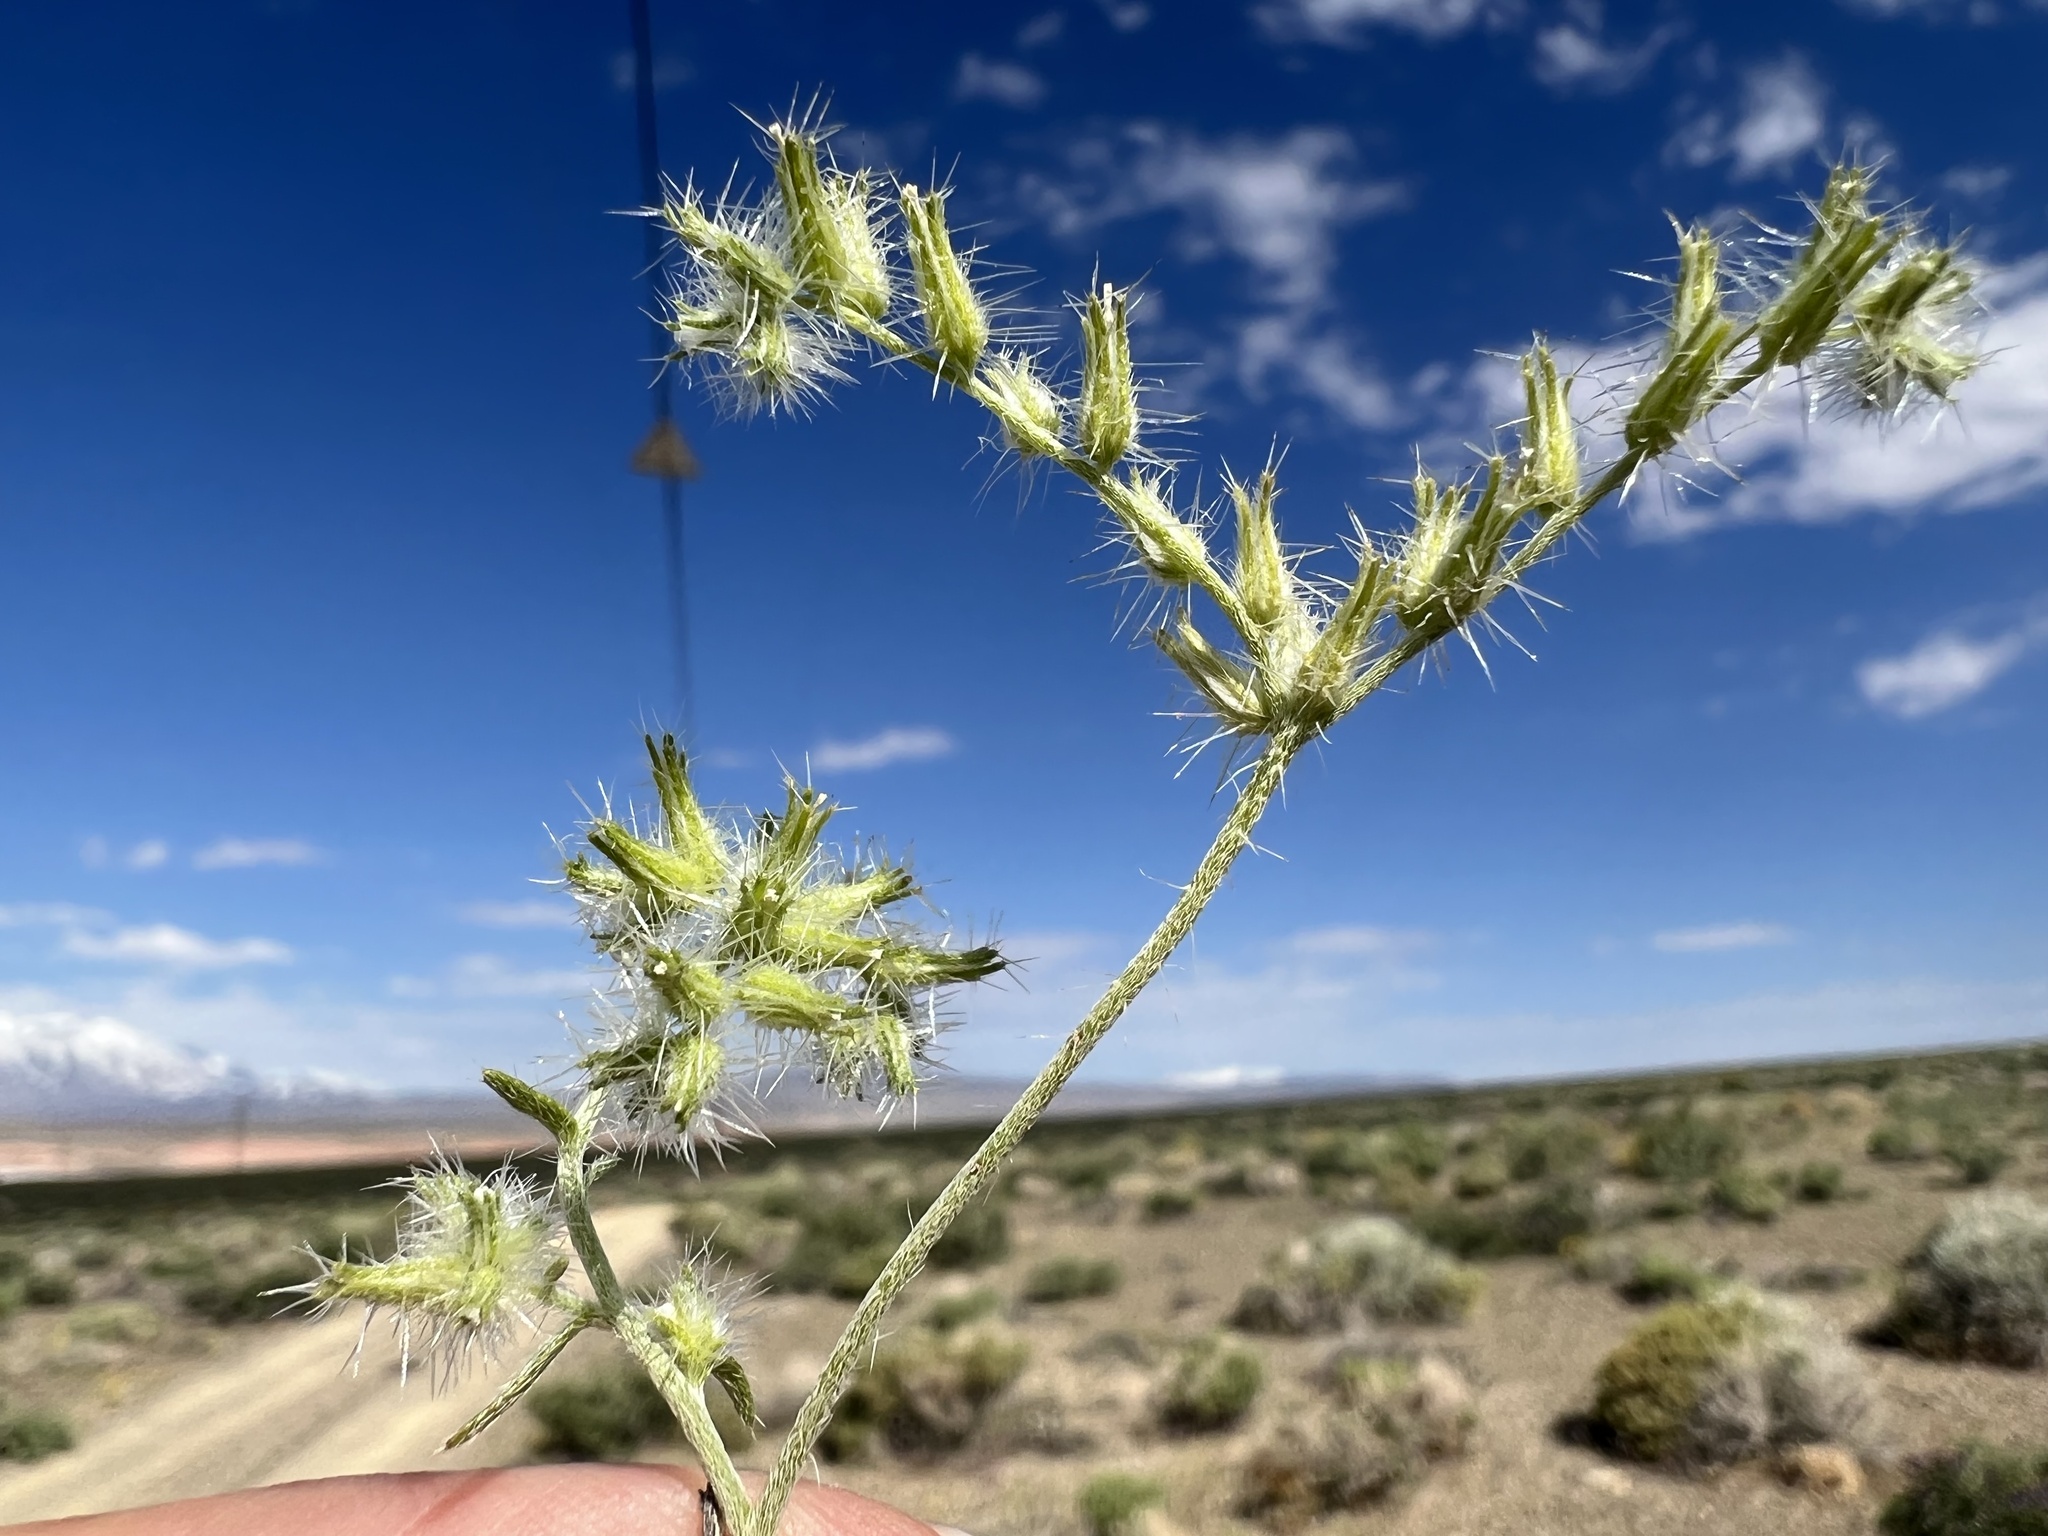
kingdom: Plantae
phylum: Tracheophyta
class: Magnoliopsida
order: Boraginales
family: Boraginaceae
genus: Cryptantha
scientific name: Cryptantha nevadensis
